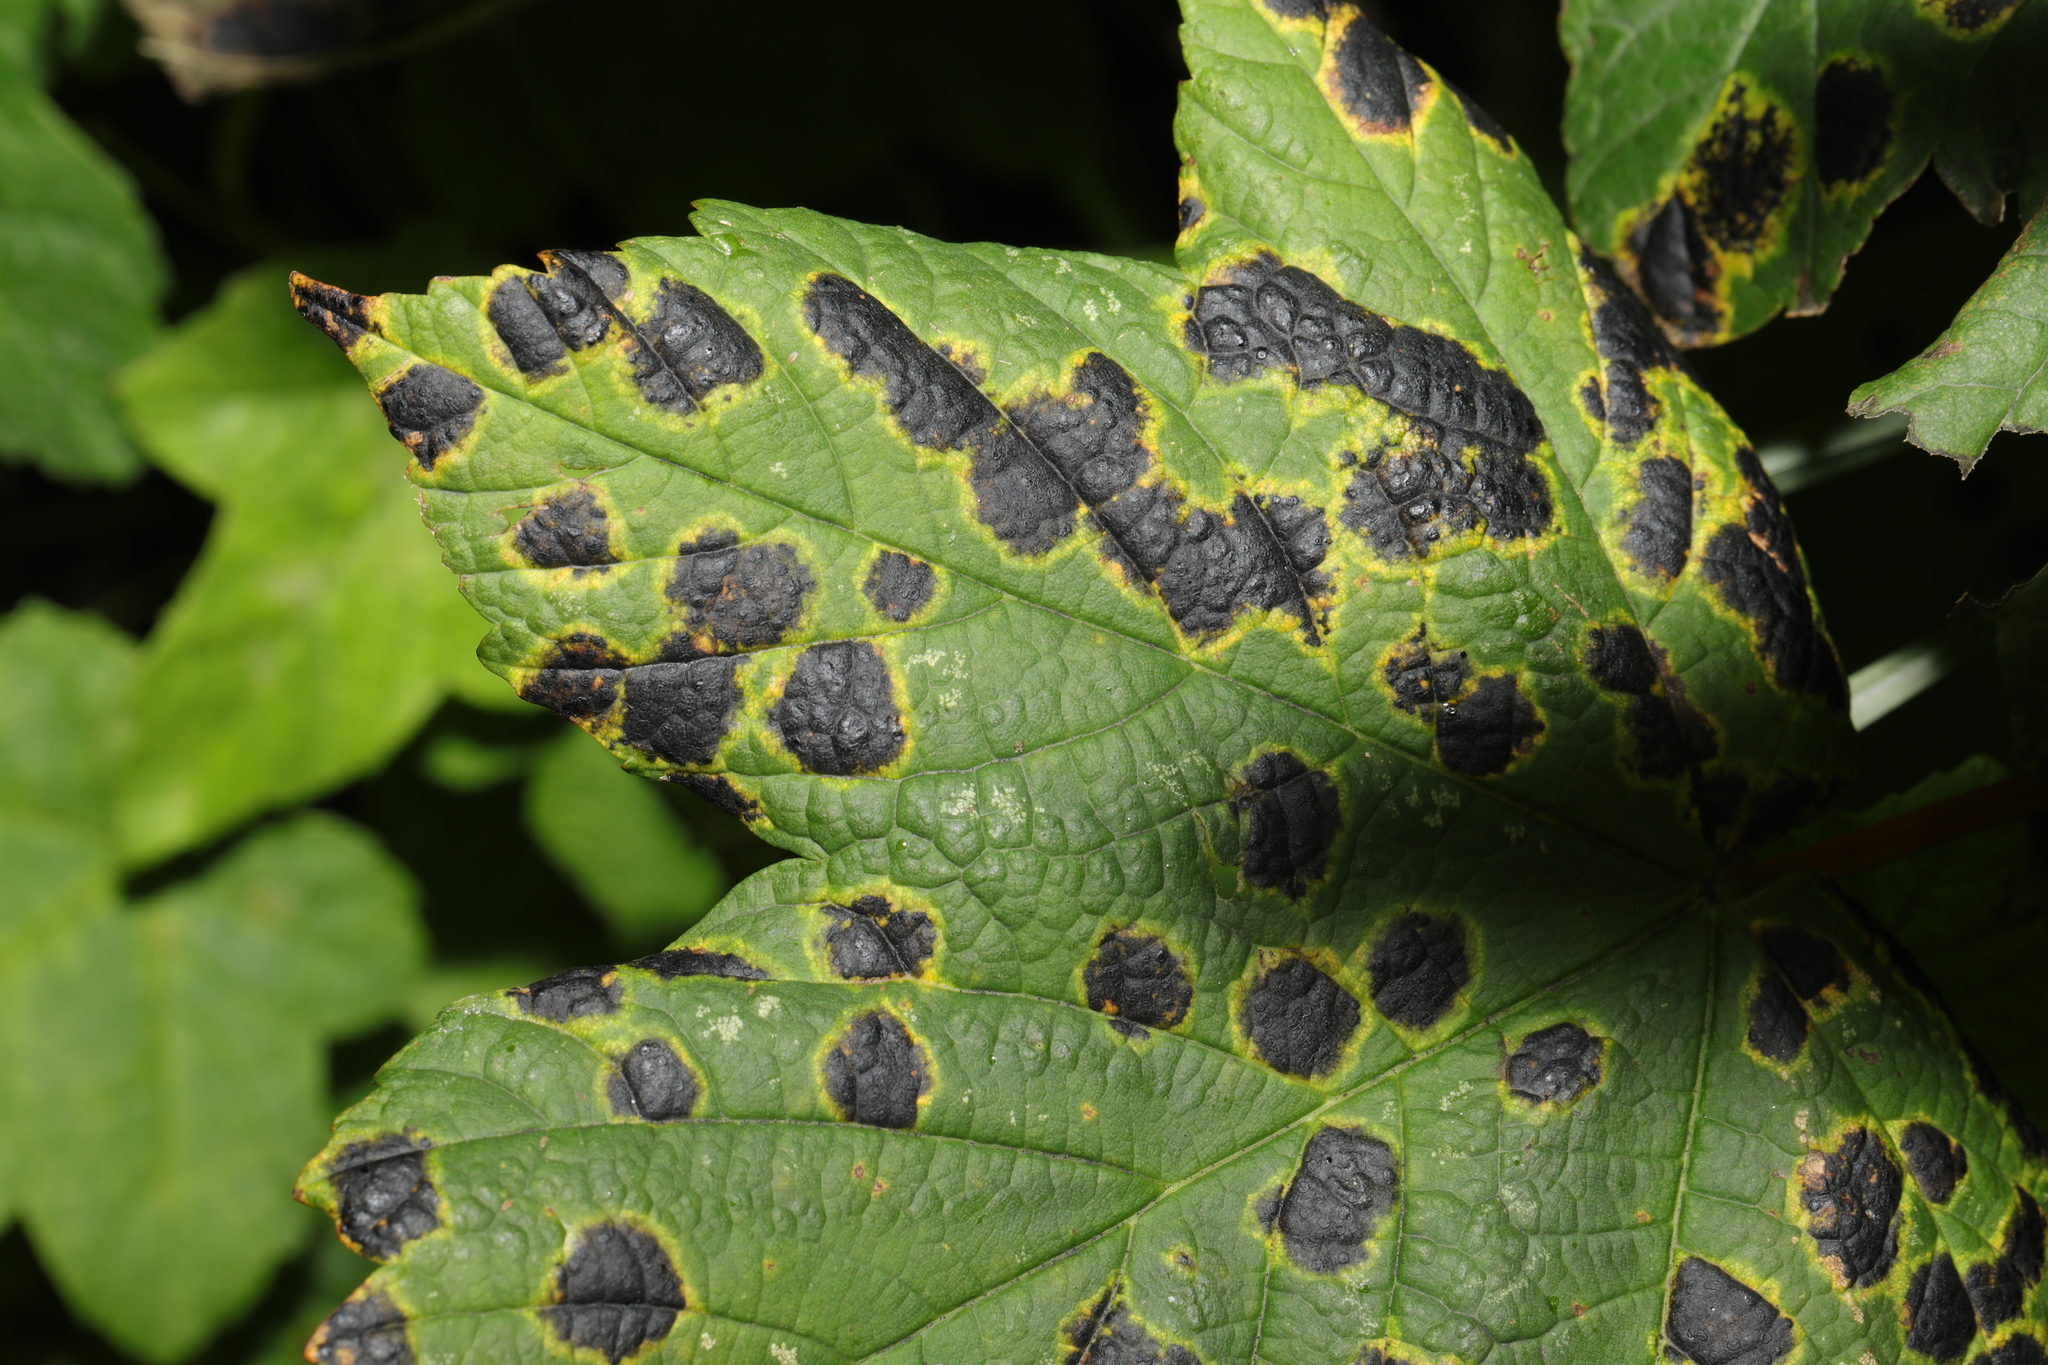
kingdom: Fungi
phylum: Ascomycota
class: Leotiomycetes
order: Rhytismatales
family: Rhytismataceae
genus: Rhytisma
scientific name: Rhytisma acerinum
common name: European tar spot
